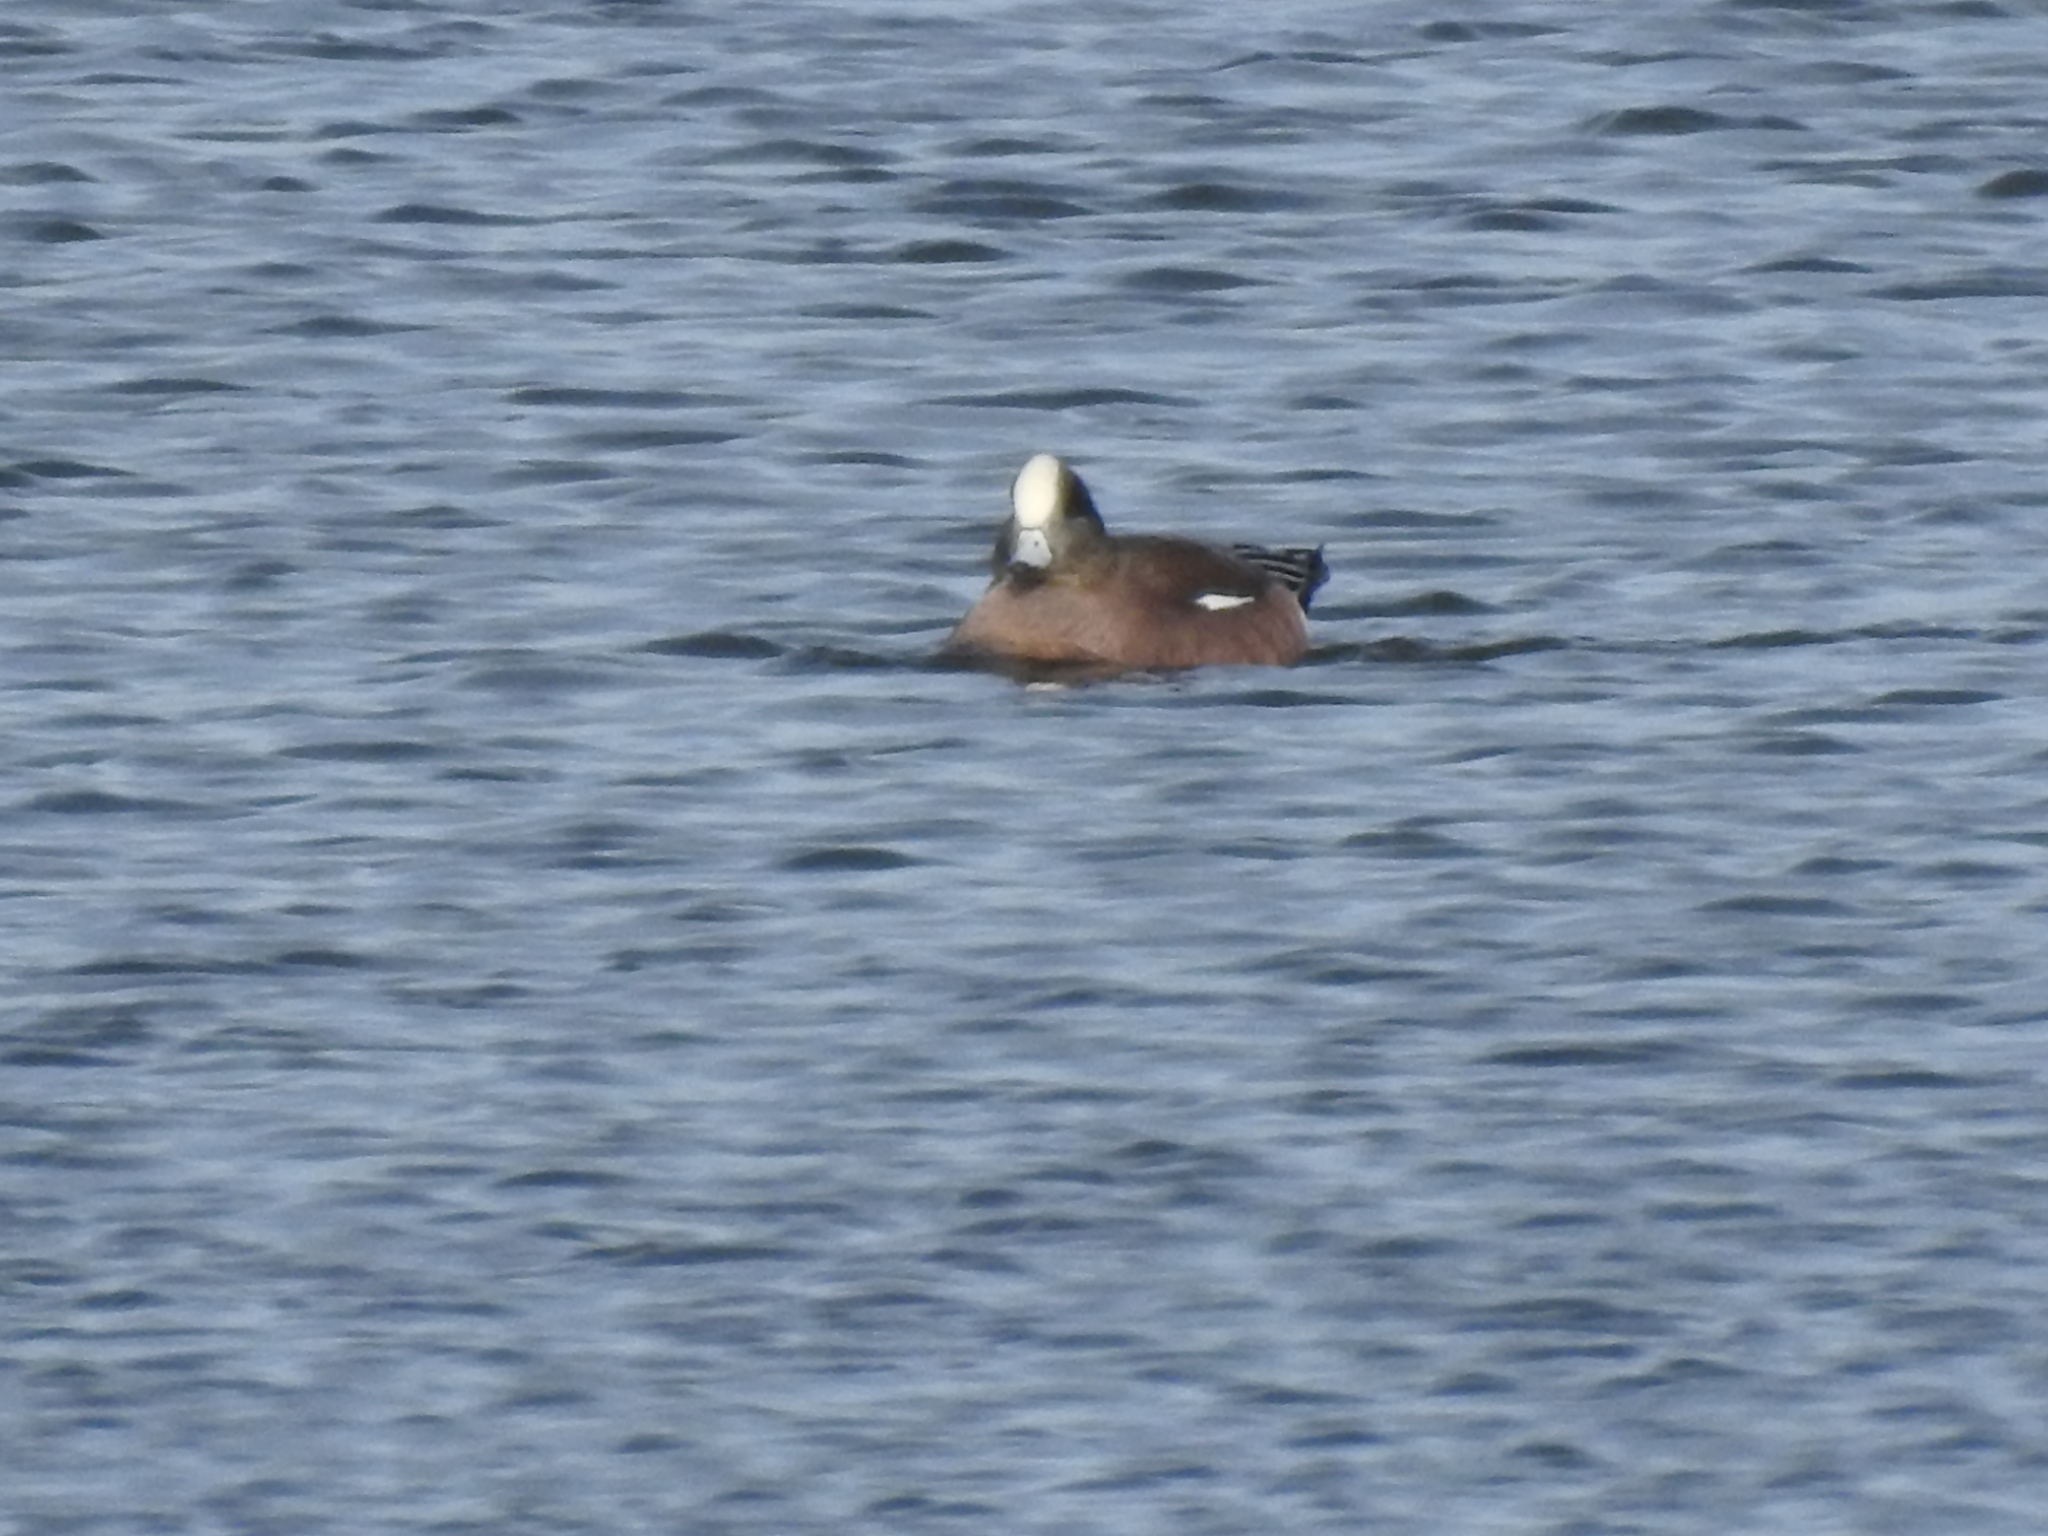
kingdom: Animalia
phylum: Chordata
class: Aves
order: Anseriformes
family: Anatidae
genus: Mareca
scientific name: Mareca americana
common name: American wigeon
